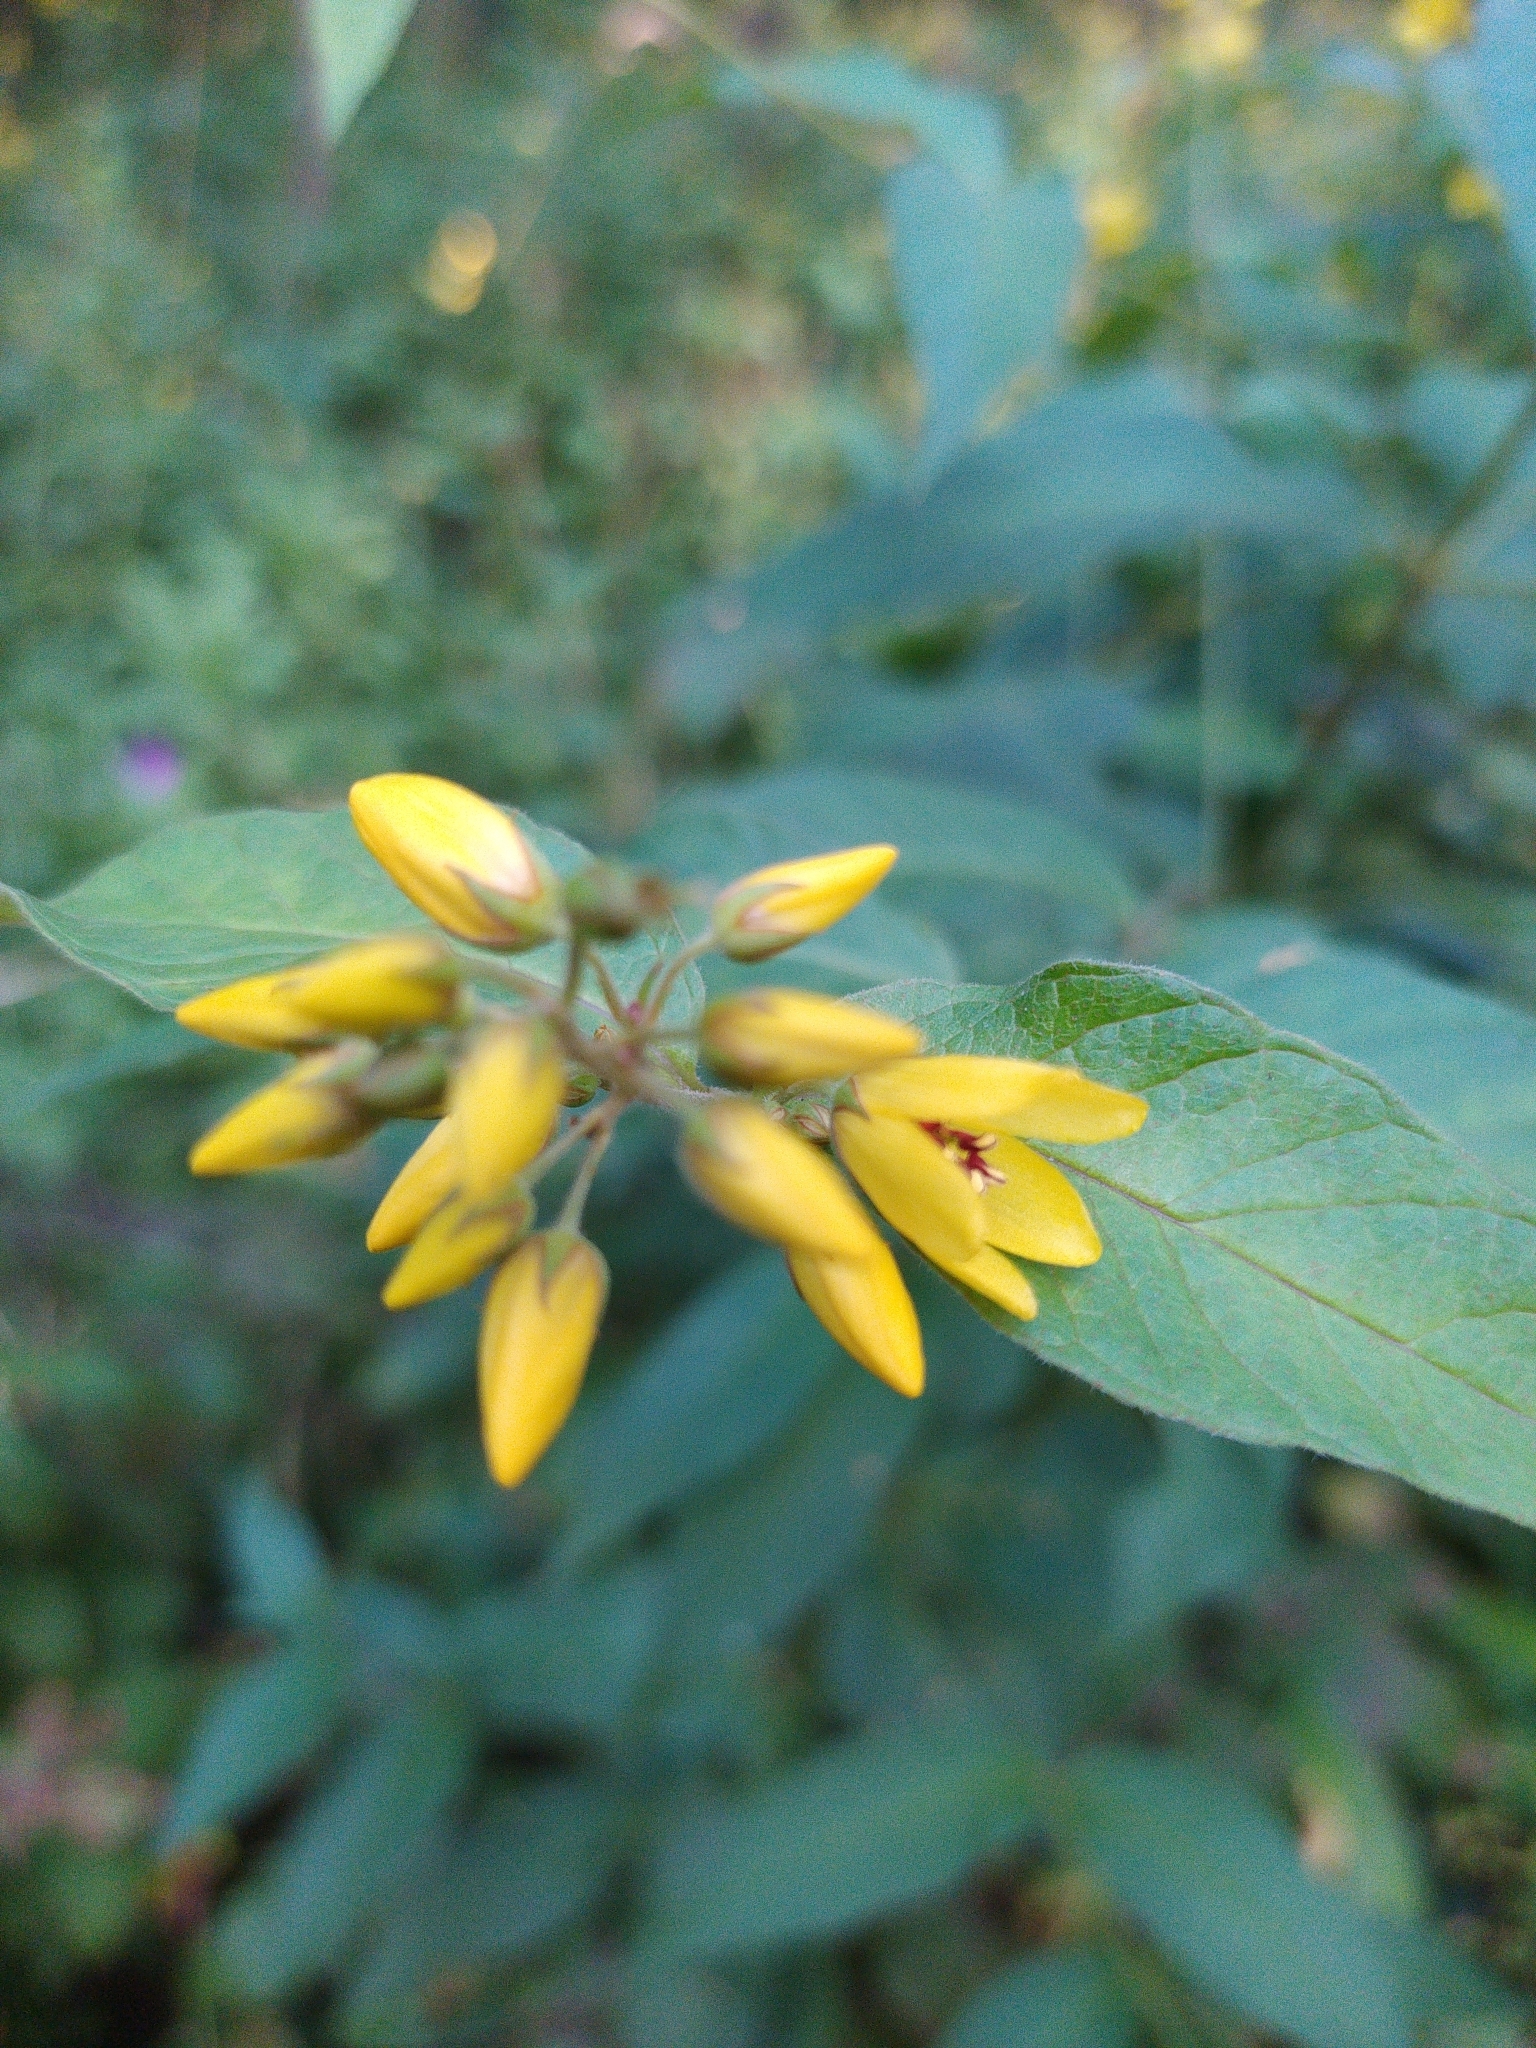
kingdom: Plantae
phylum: Tracheophyta
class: Magnoliopsida
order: Ericales
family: Primulaceae
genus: Lysimachia
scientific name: Lysimachia vulgaris
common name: Yellow loosestrife
